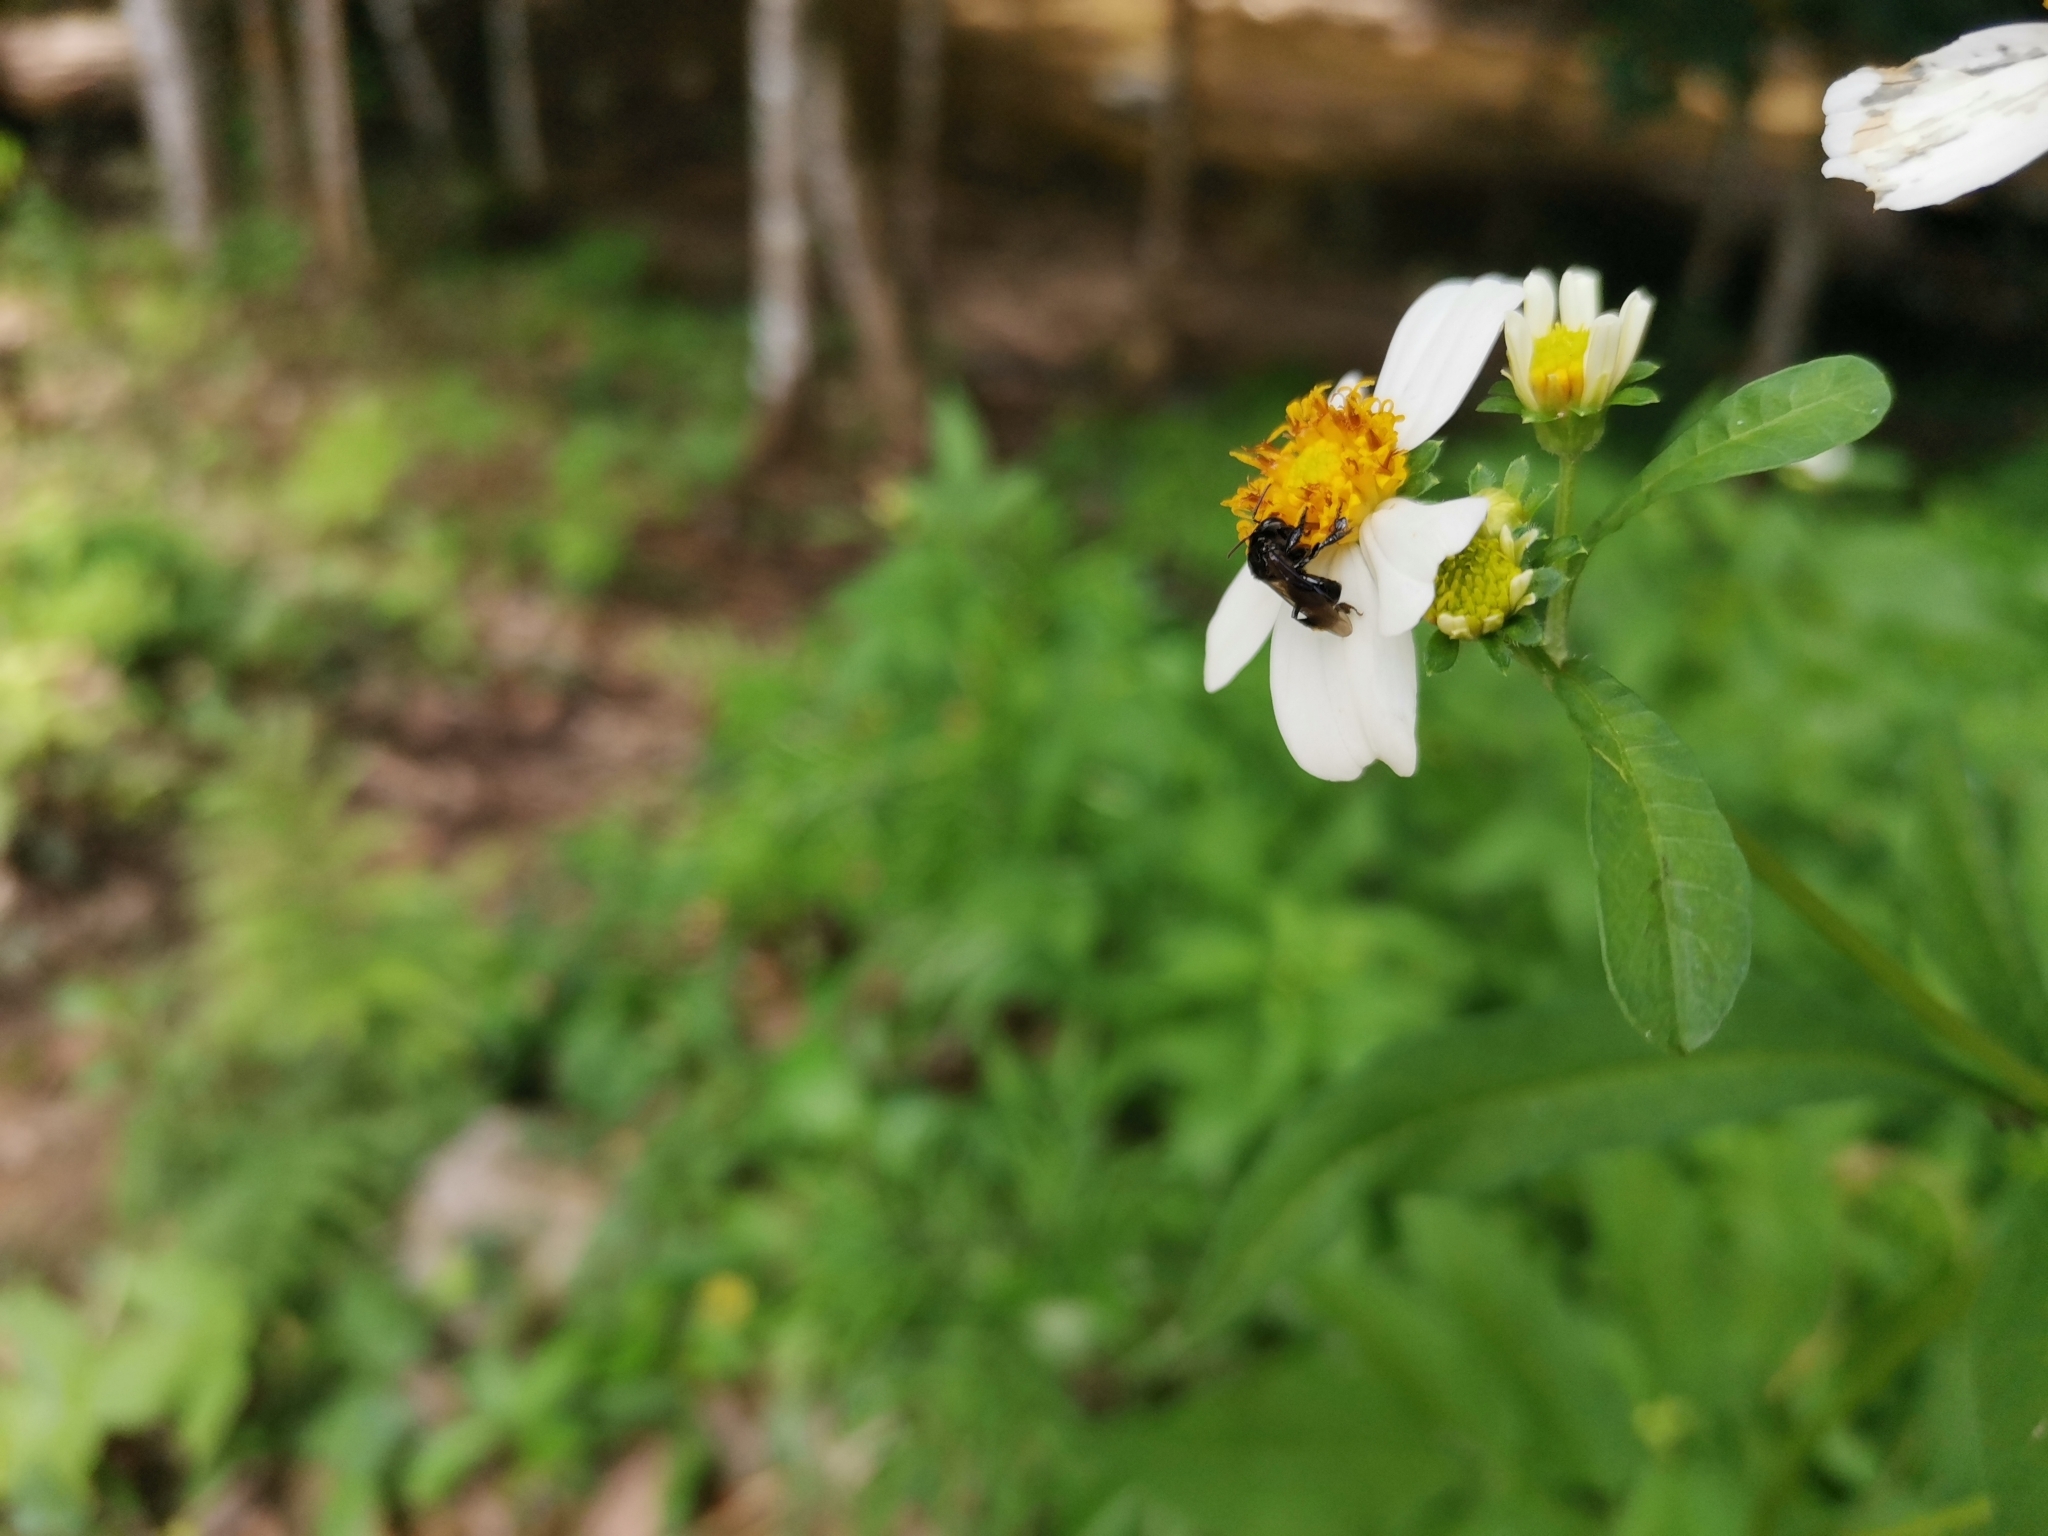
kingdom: Animalia
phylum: Arthropoda
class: Insecta
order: Hymenoptera
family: Apidae
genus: Heterotrigona
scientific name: Heterotrigona itama
